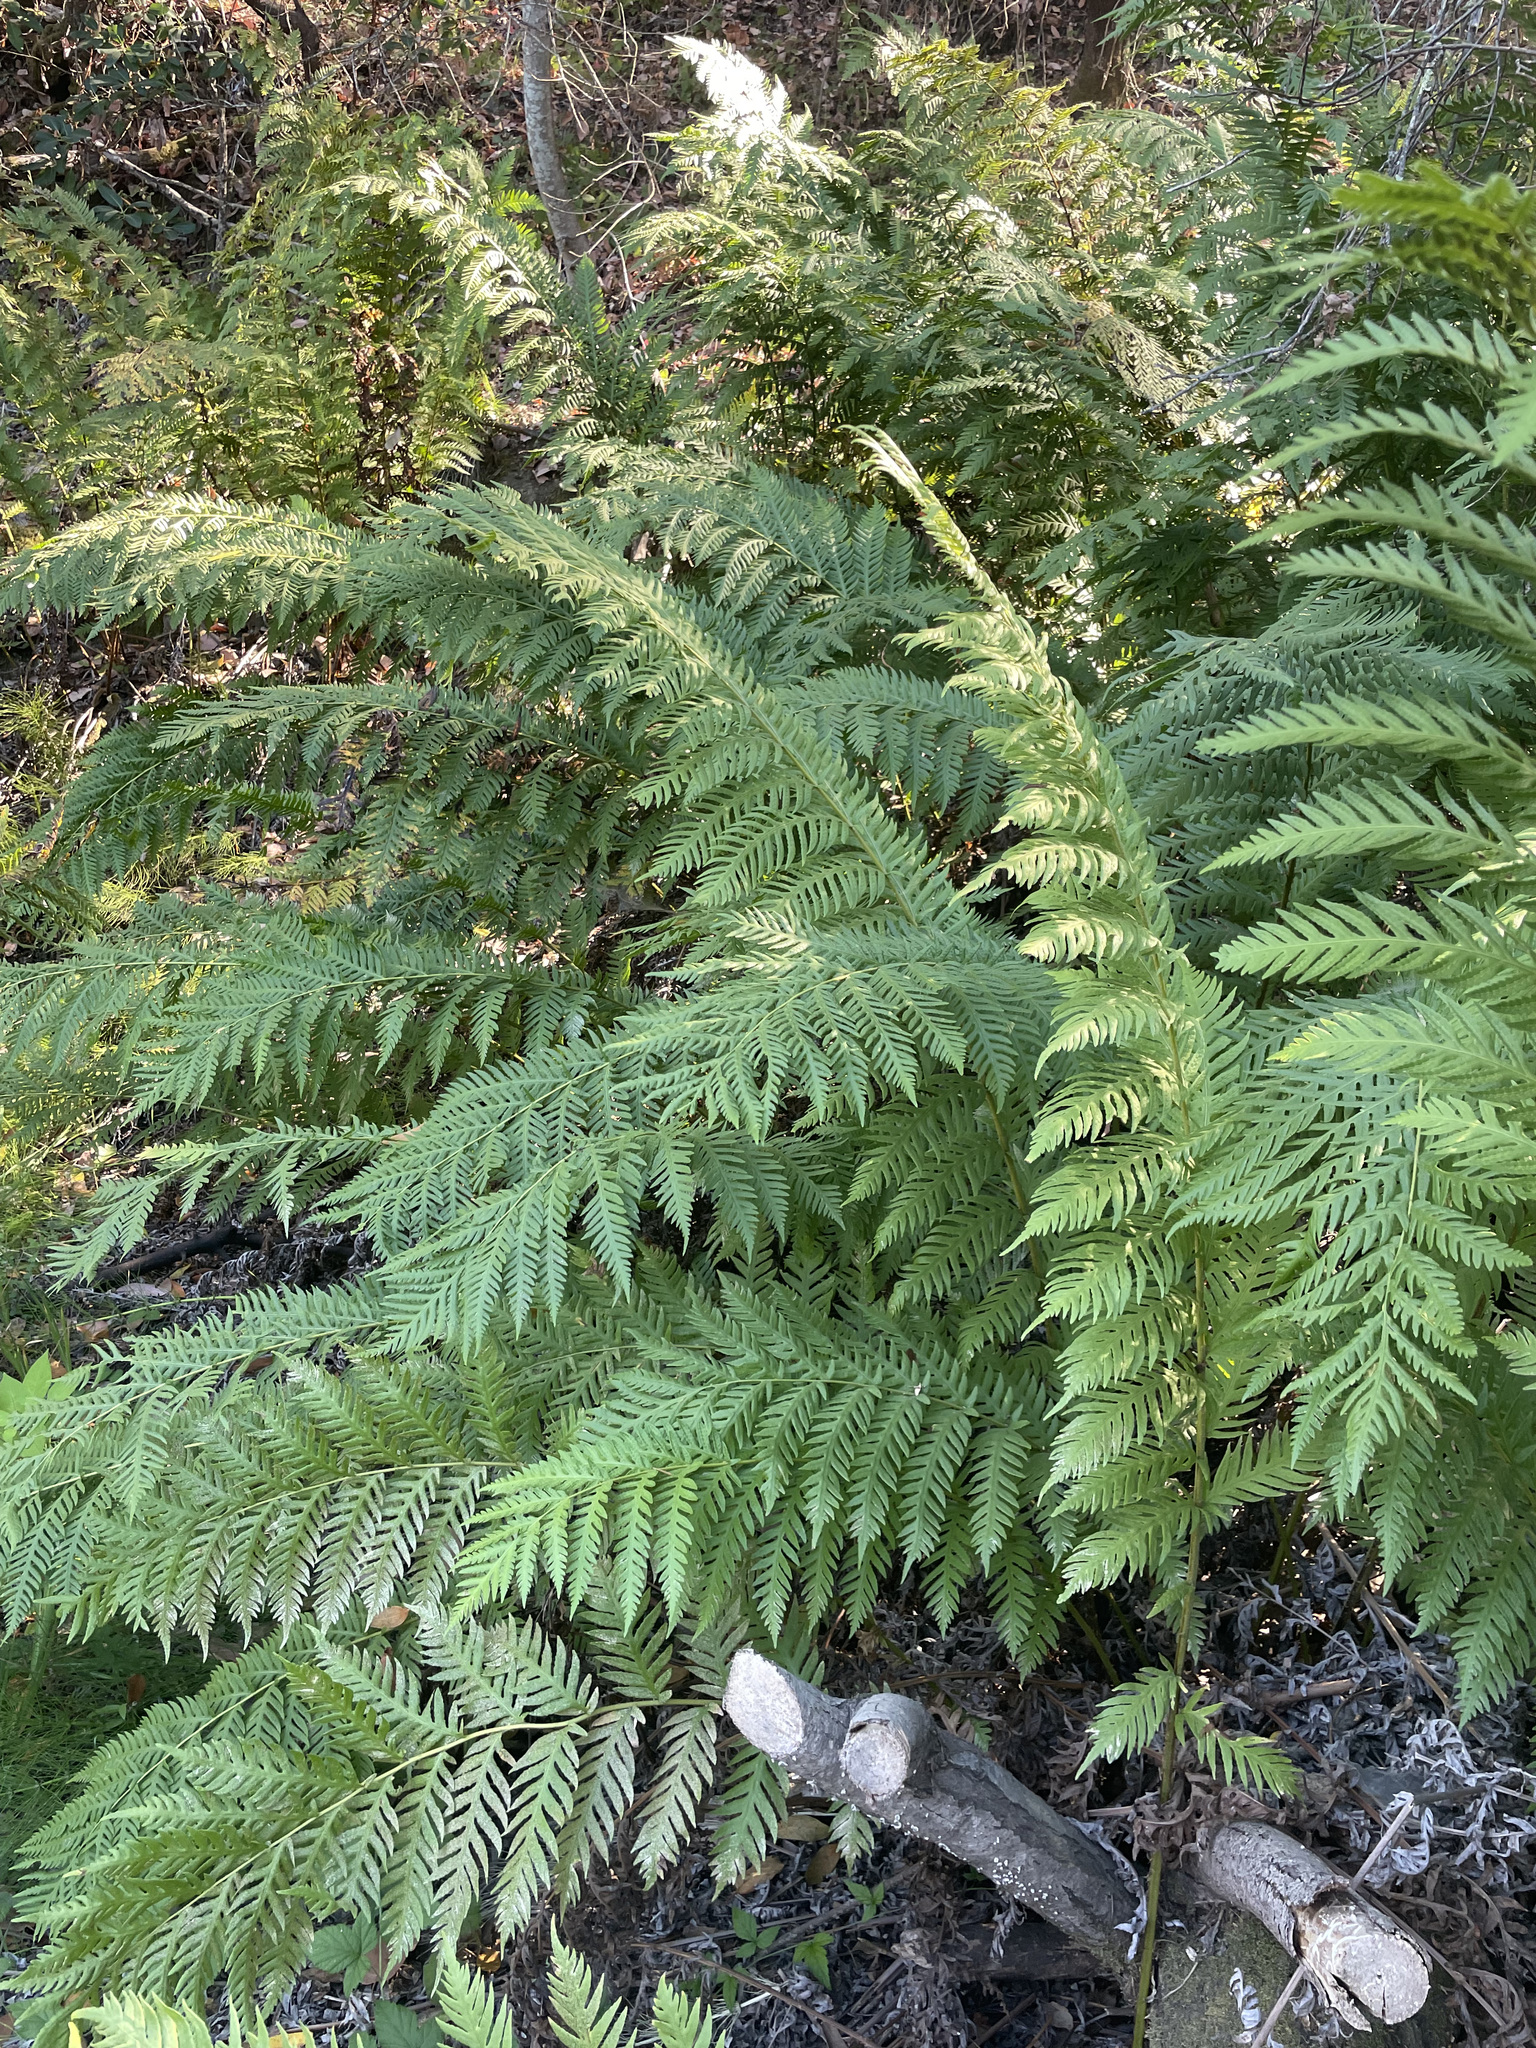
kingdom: Plantae
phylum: Tracheophyta
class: Polypodiopsida
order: Polypodiales
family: Blechnaceae
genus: Woodwardia
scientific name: Woodwardia fimbriata
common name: Giant chain fern
